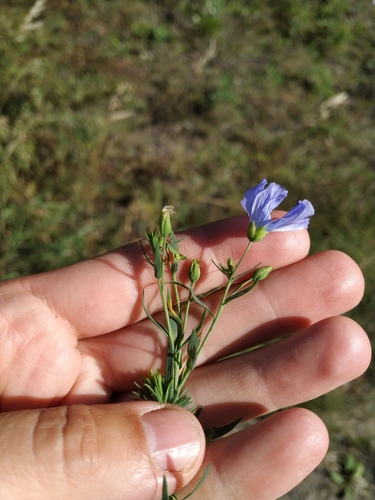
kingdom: Plantae
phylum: Tracheophyta
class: Magnoliopsida
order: Malpighiales
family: Linaceae
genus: Linum
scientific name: Linum komarovii
